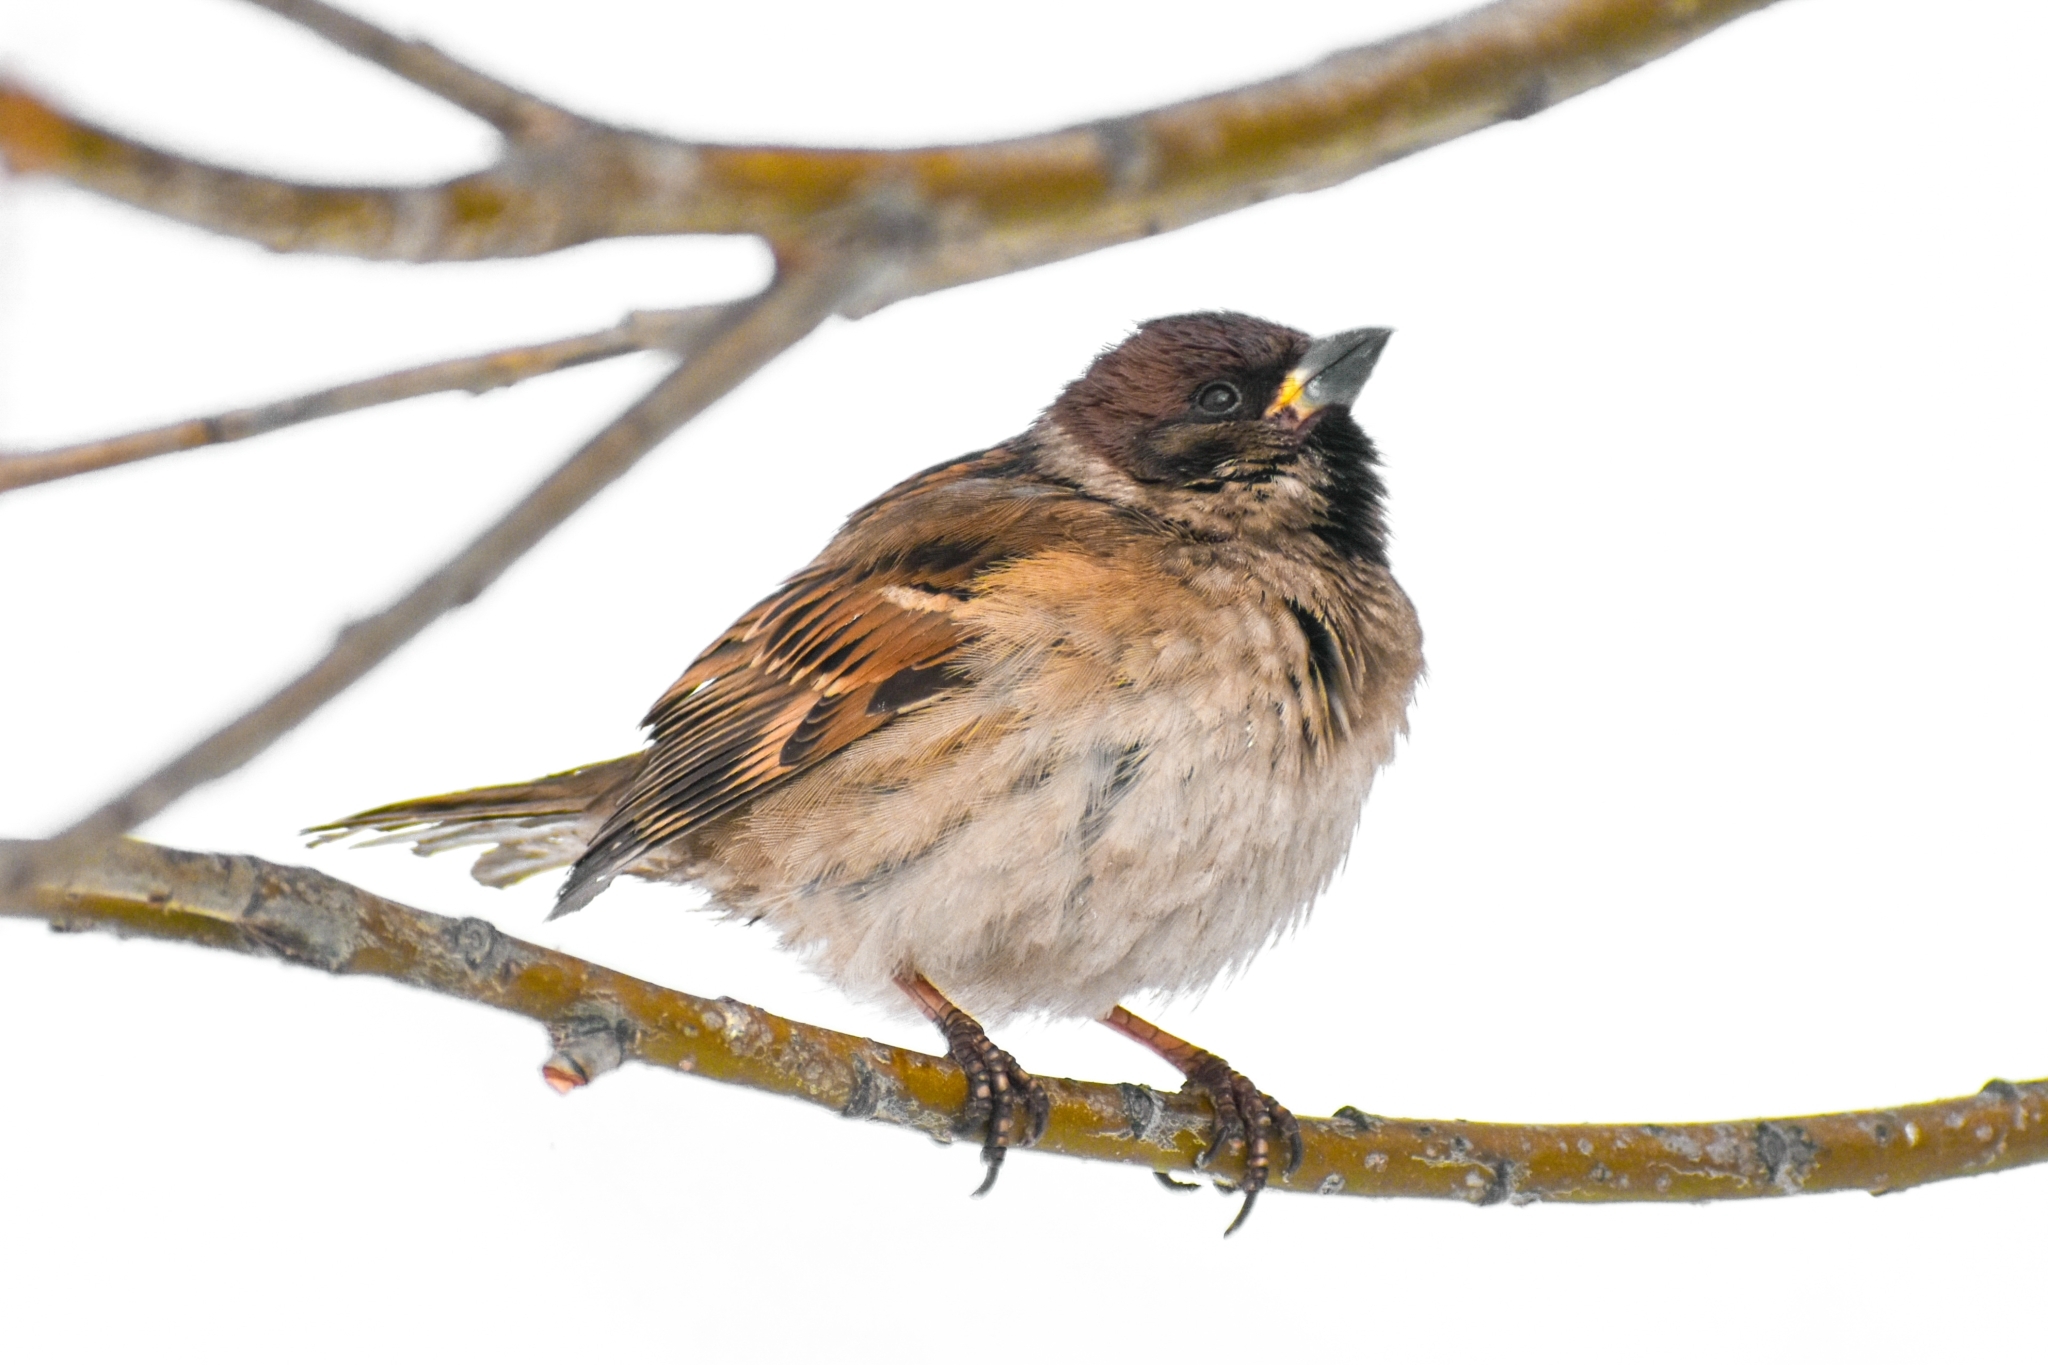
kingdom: Animalia
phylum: Chordata
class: Aves
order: Passeriformes
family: Passeridae
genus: Passer
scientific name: Passer montanus
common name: Eurasian tree sparrow
